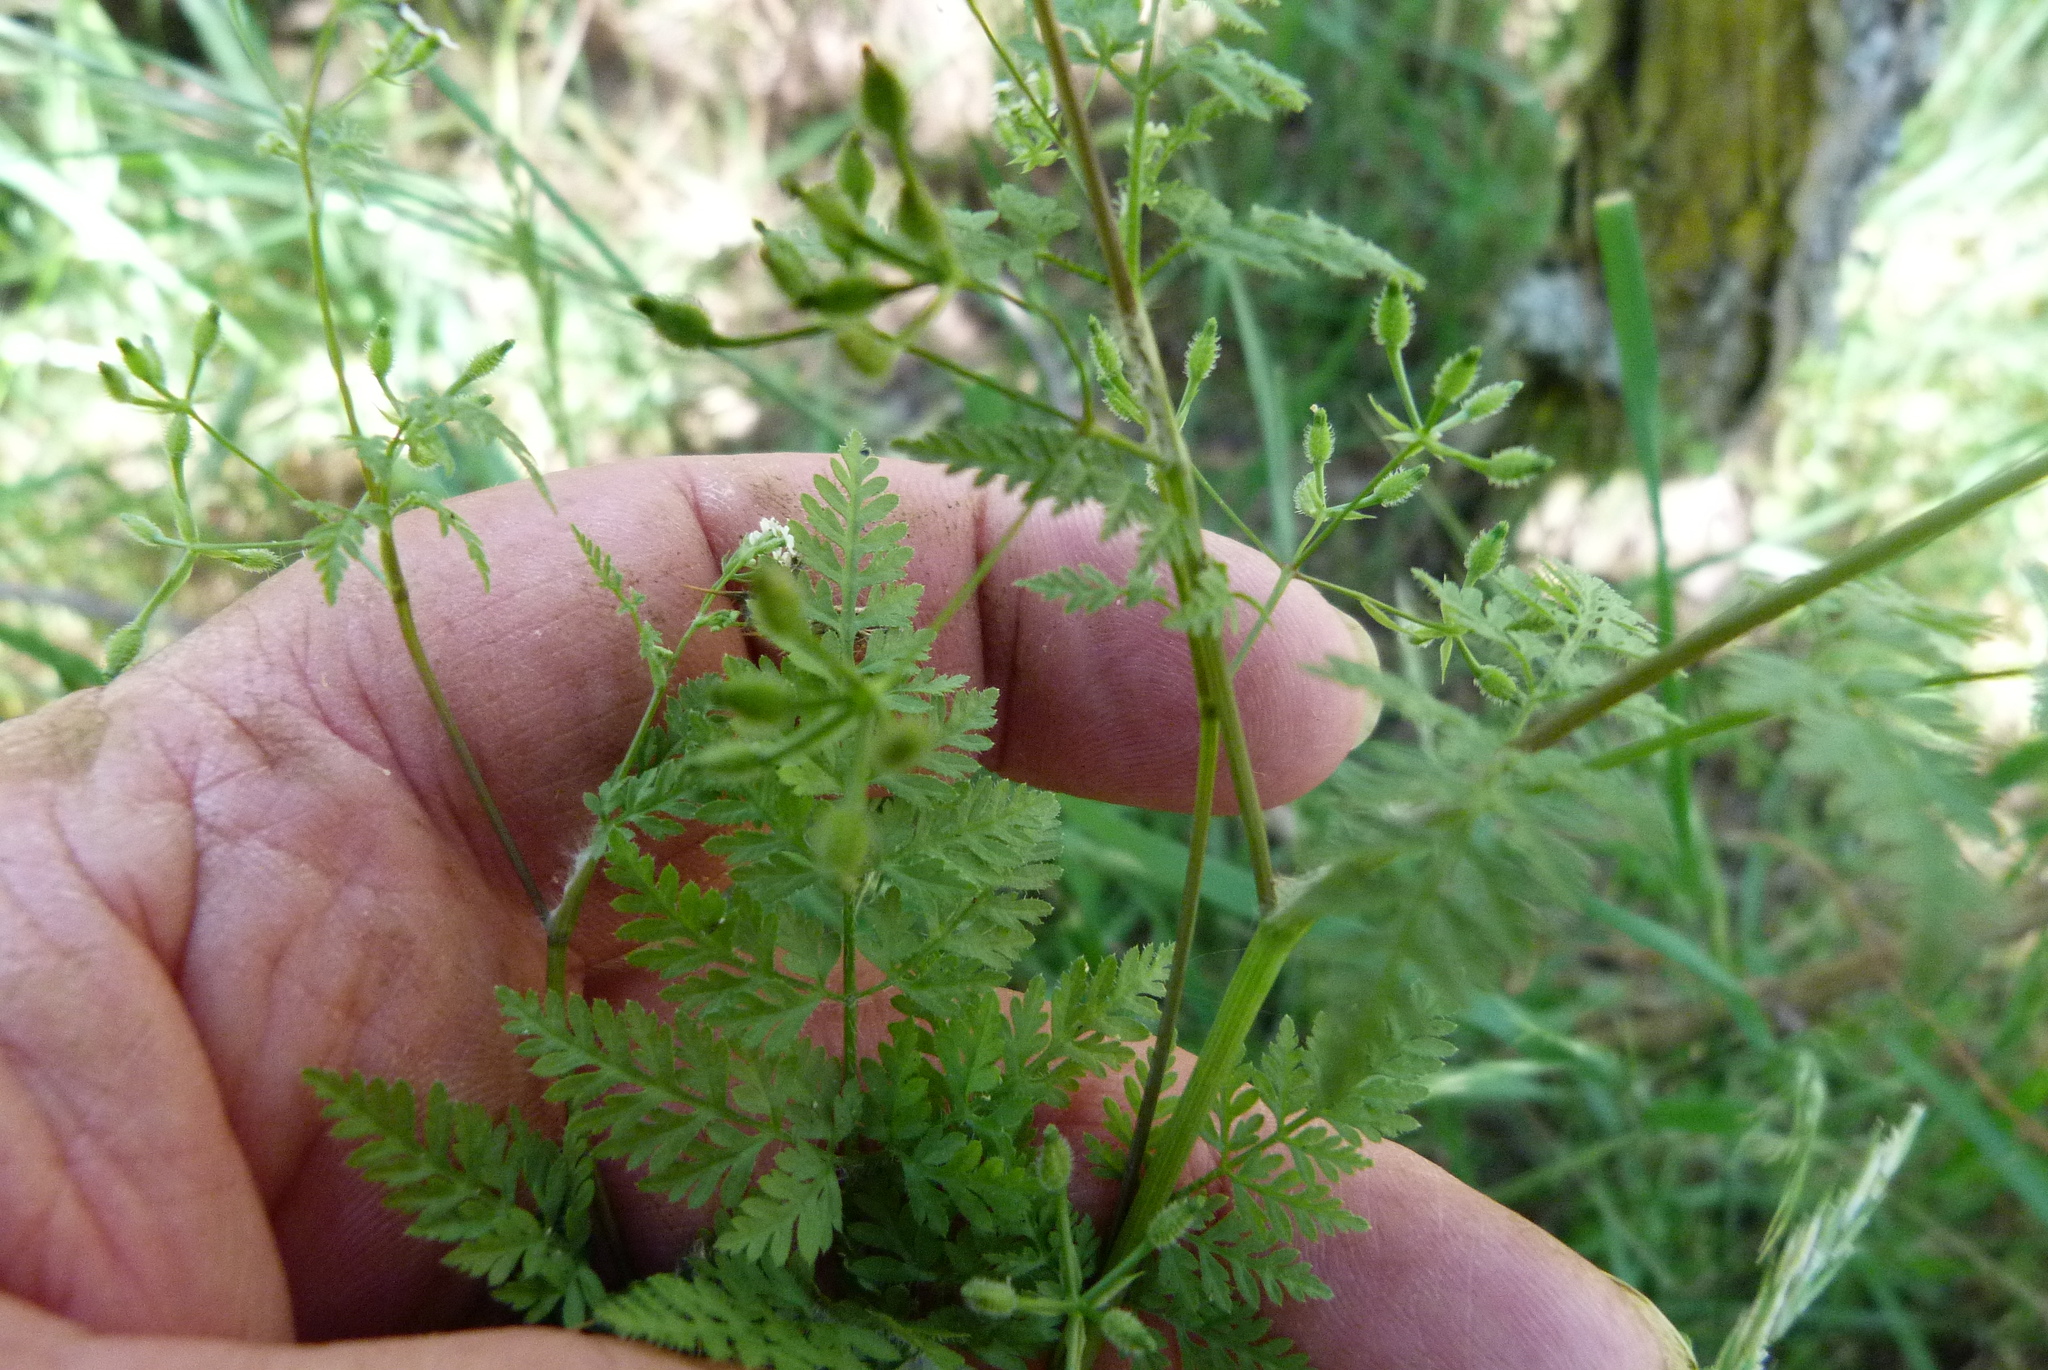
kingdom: Plantae
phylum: Tracheophyta
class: Magnoliopsida
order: Apiales
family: Apiaceae
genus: Anthriscus
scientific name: Anthriscus caucalis
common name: Bur chervil
